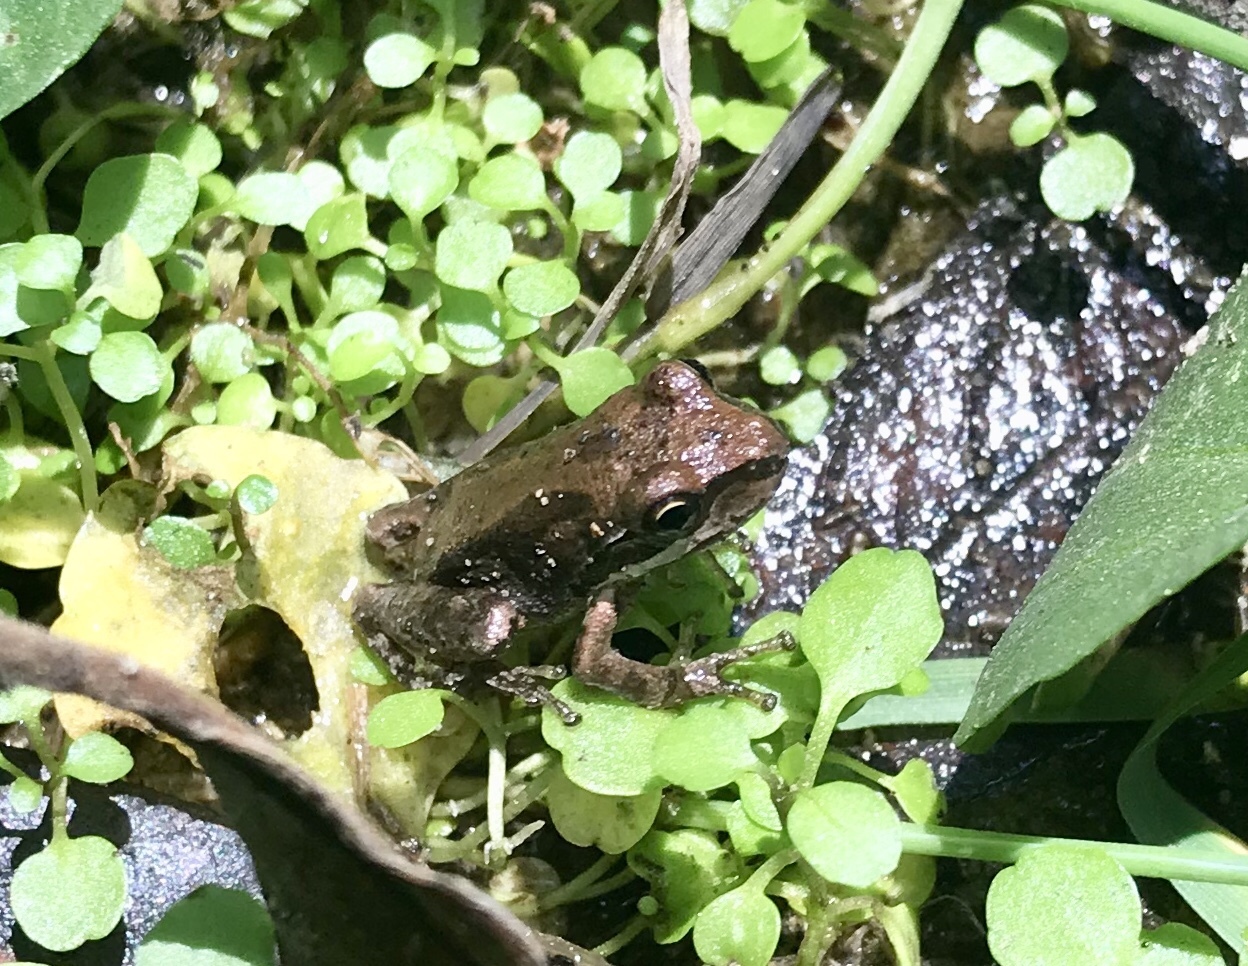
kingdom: Animalia
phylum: Chordata
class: Amphibia
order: Anura
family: Hylidae
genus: Pseudacris
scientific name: Pseudacris regilla
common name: Pacific chorus frog
